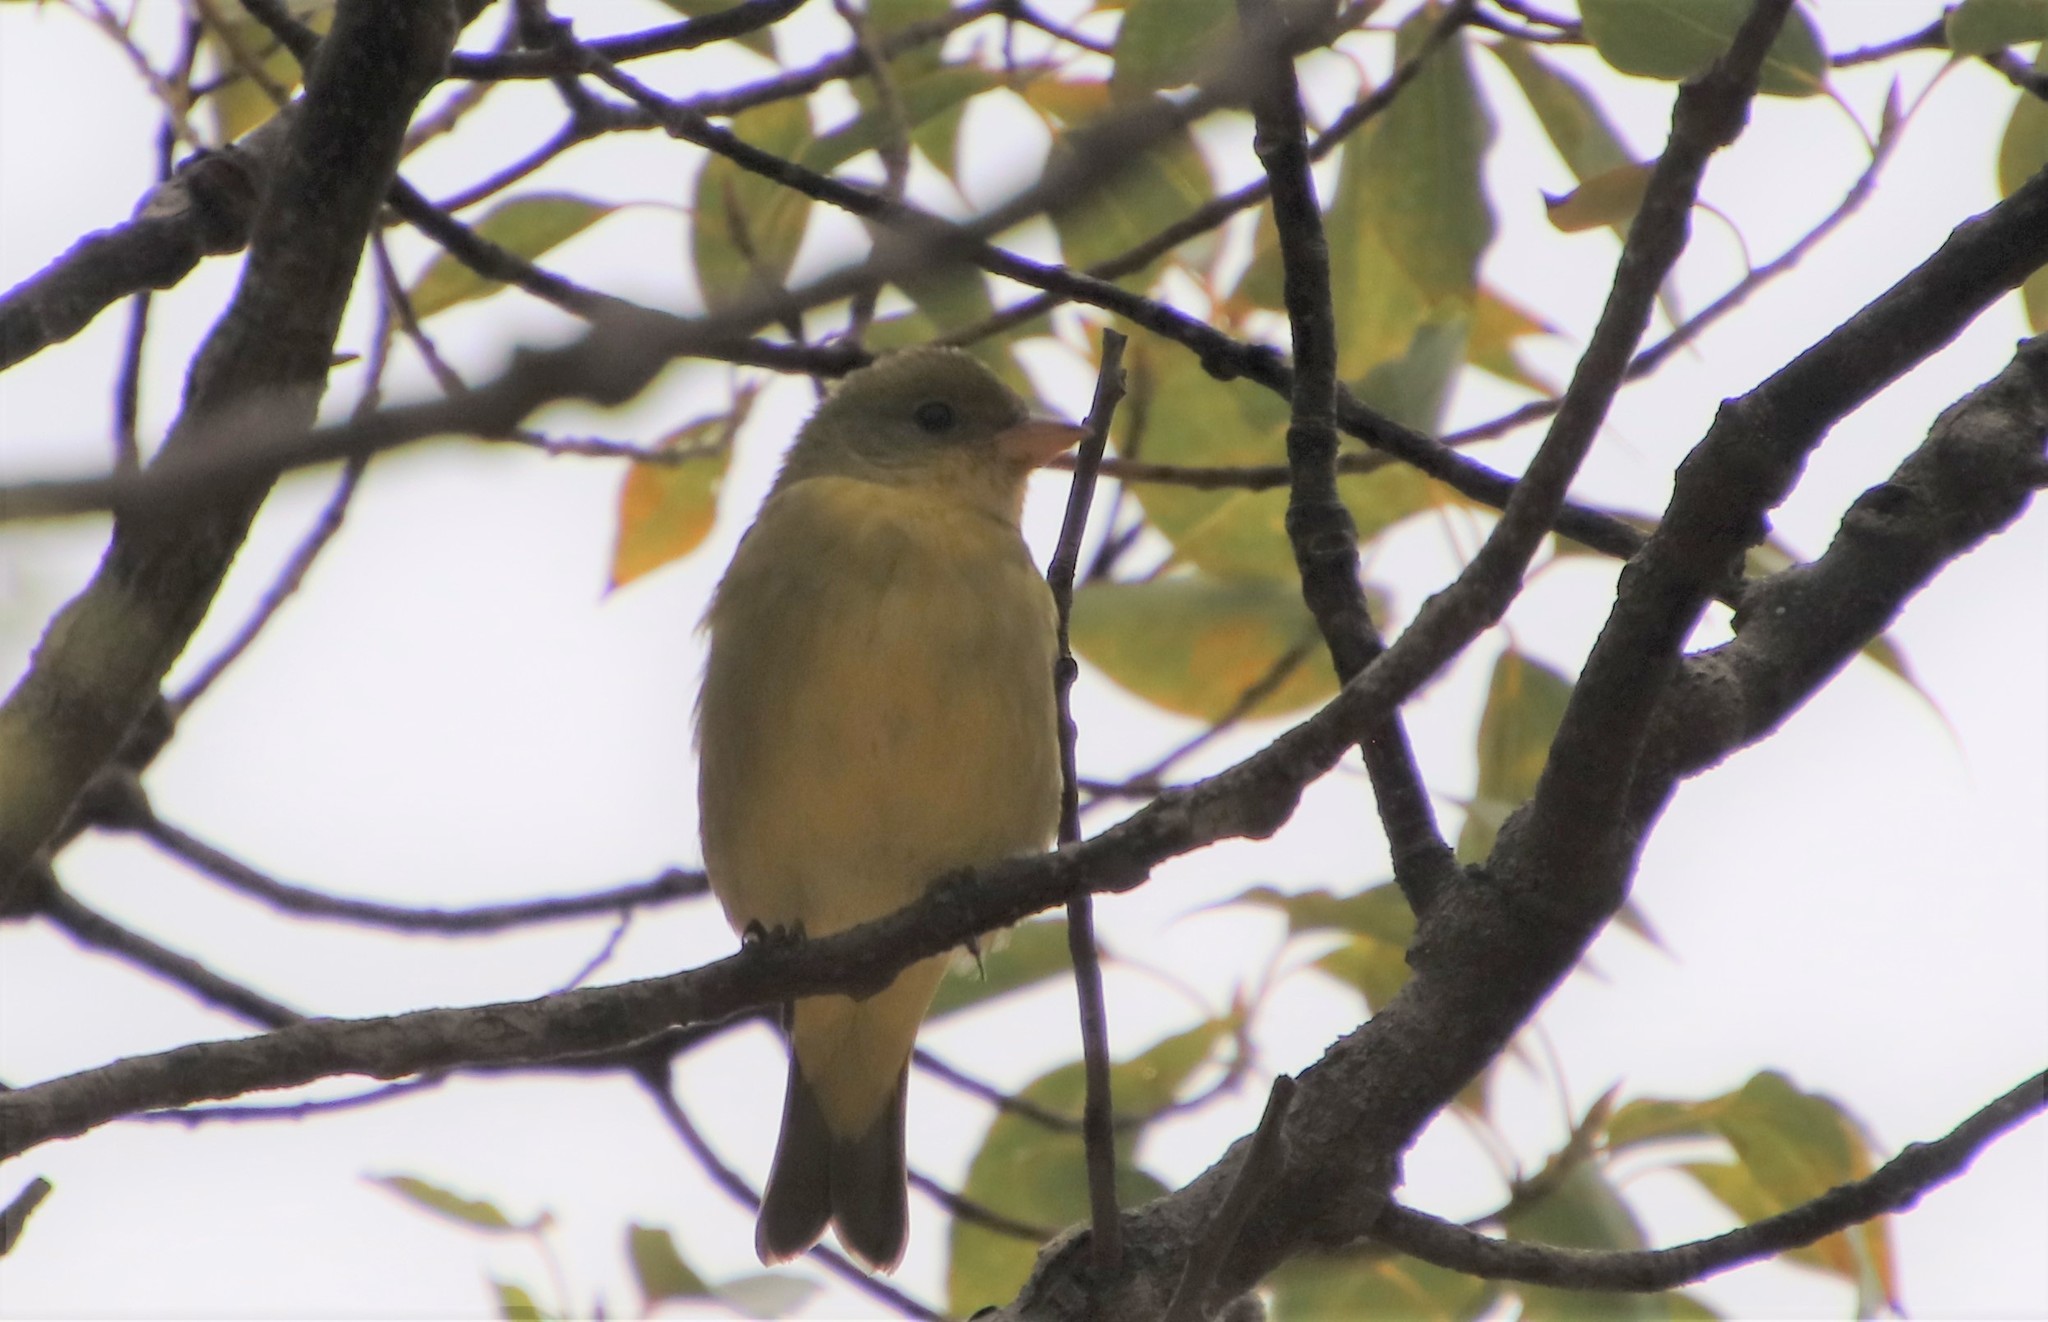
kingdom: Animalia
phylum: Chordata
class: Aves
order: Passeriformes
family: Cardinalidae
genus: Piranga
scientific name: Piranga ludoviciana
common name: Western tanager
